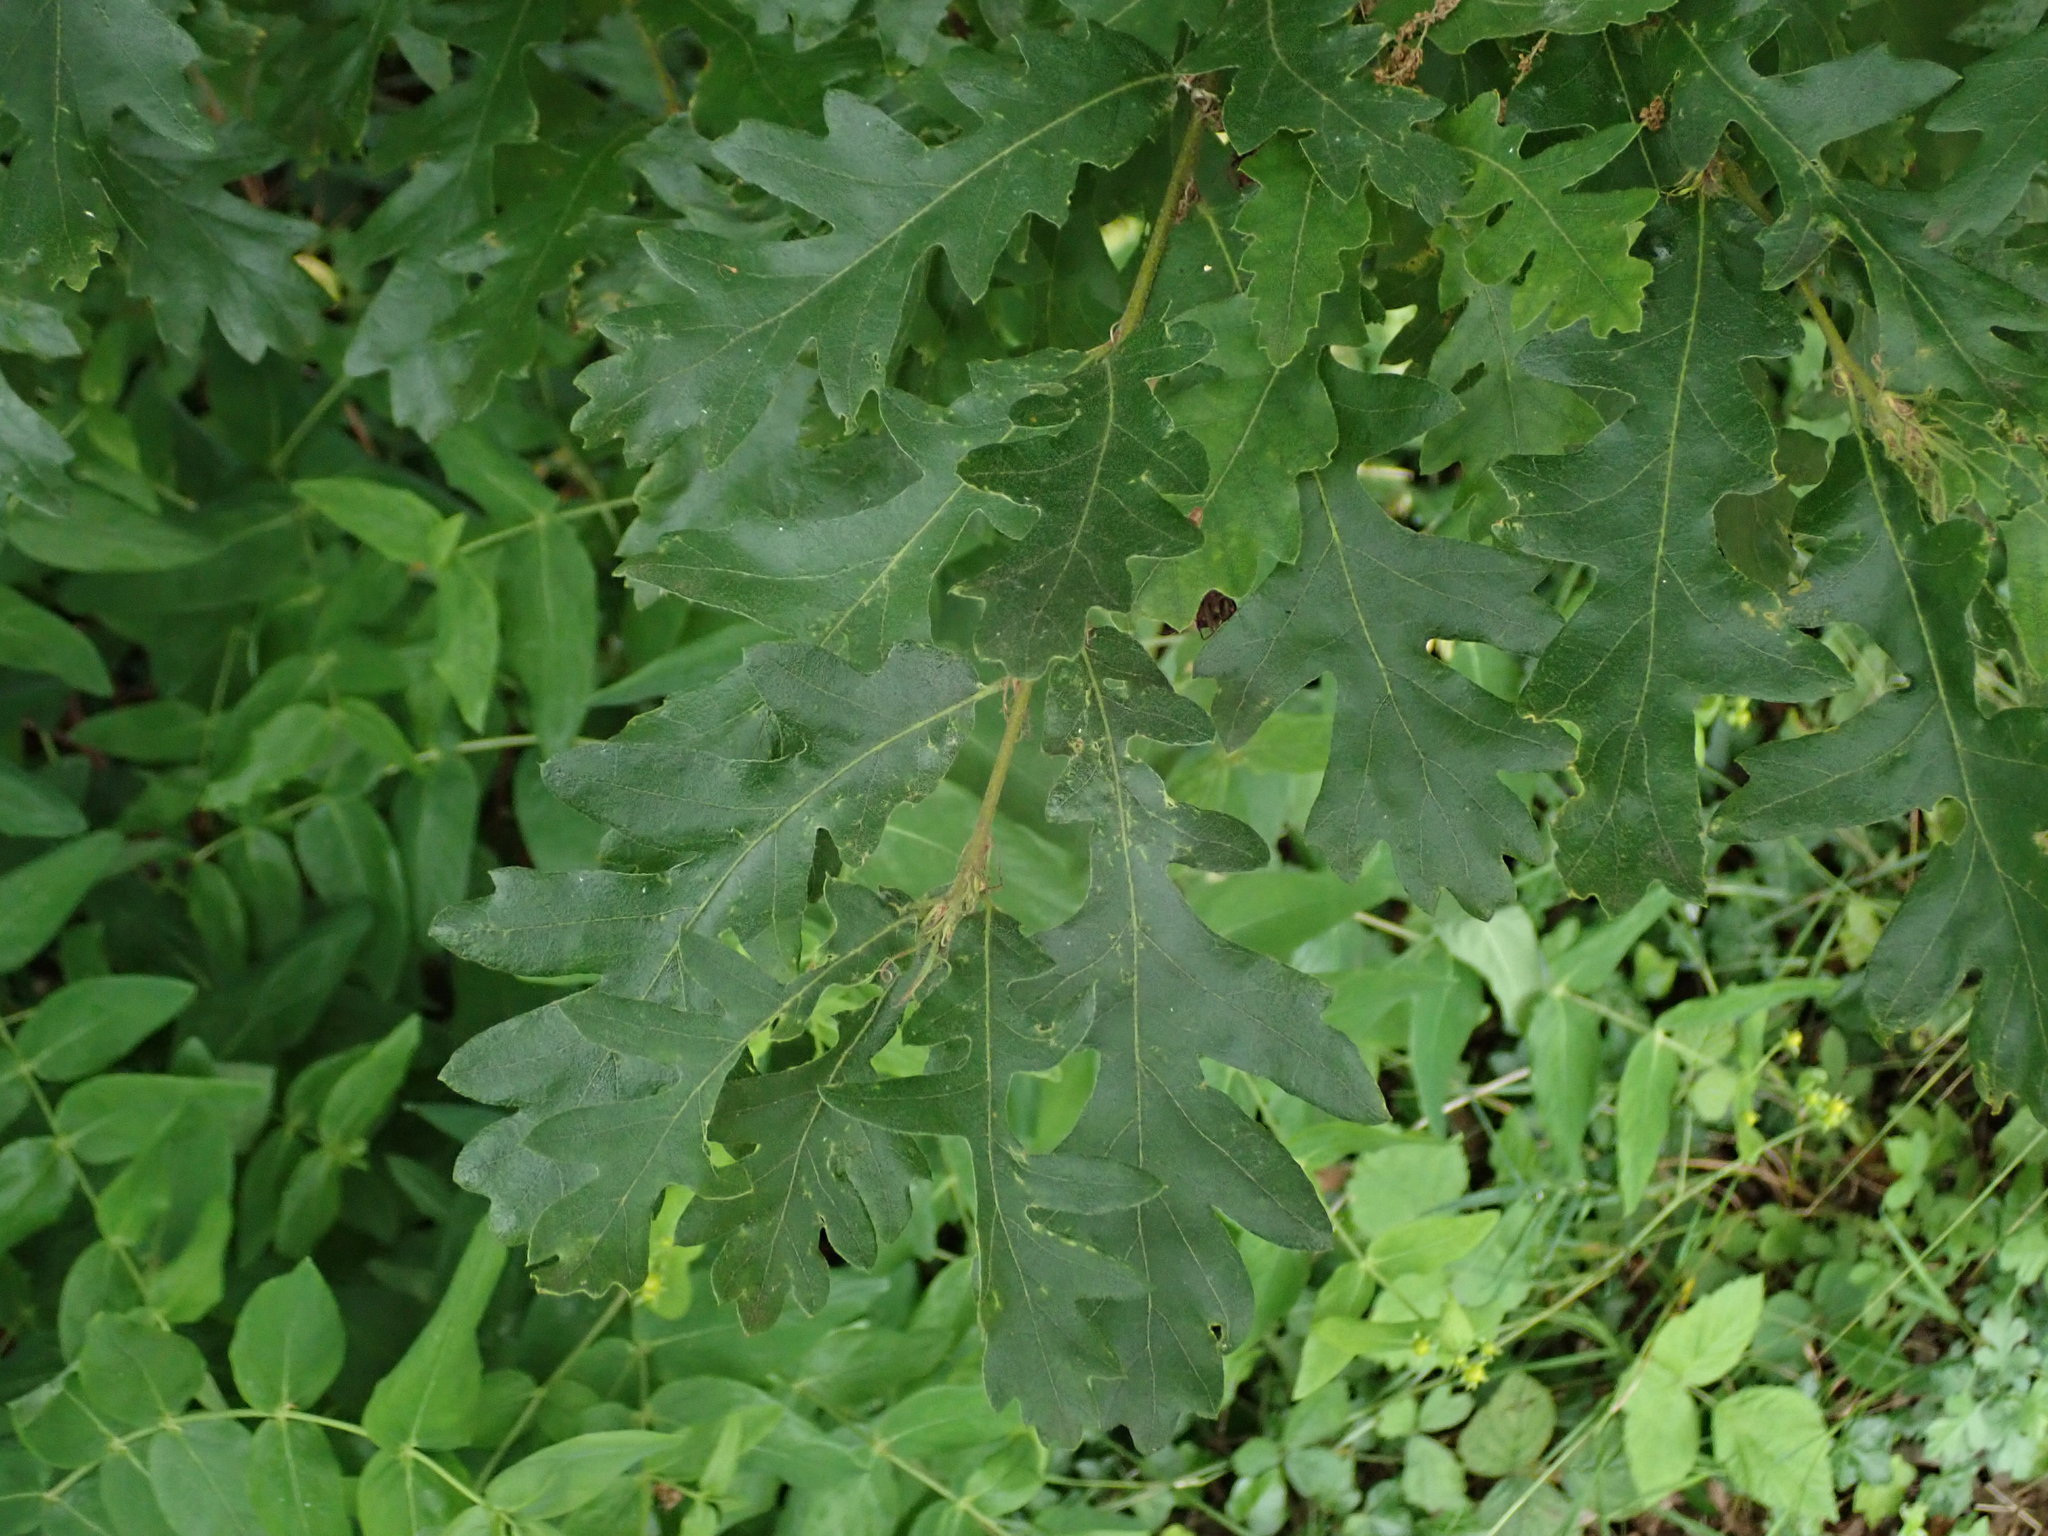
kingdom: Plantae
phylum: Tracheophyta
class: Magnoliopsida
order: Fagales
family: Fagaceae
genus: Quercus
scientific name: Quercus cerris
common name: Turkey oak
